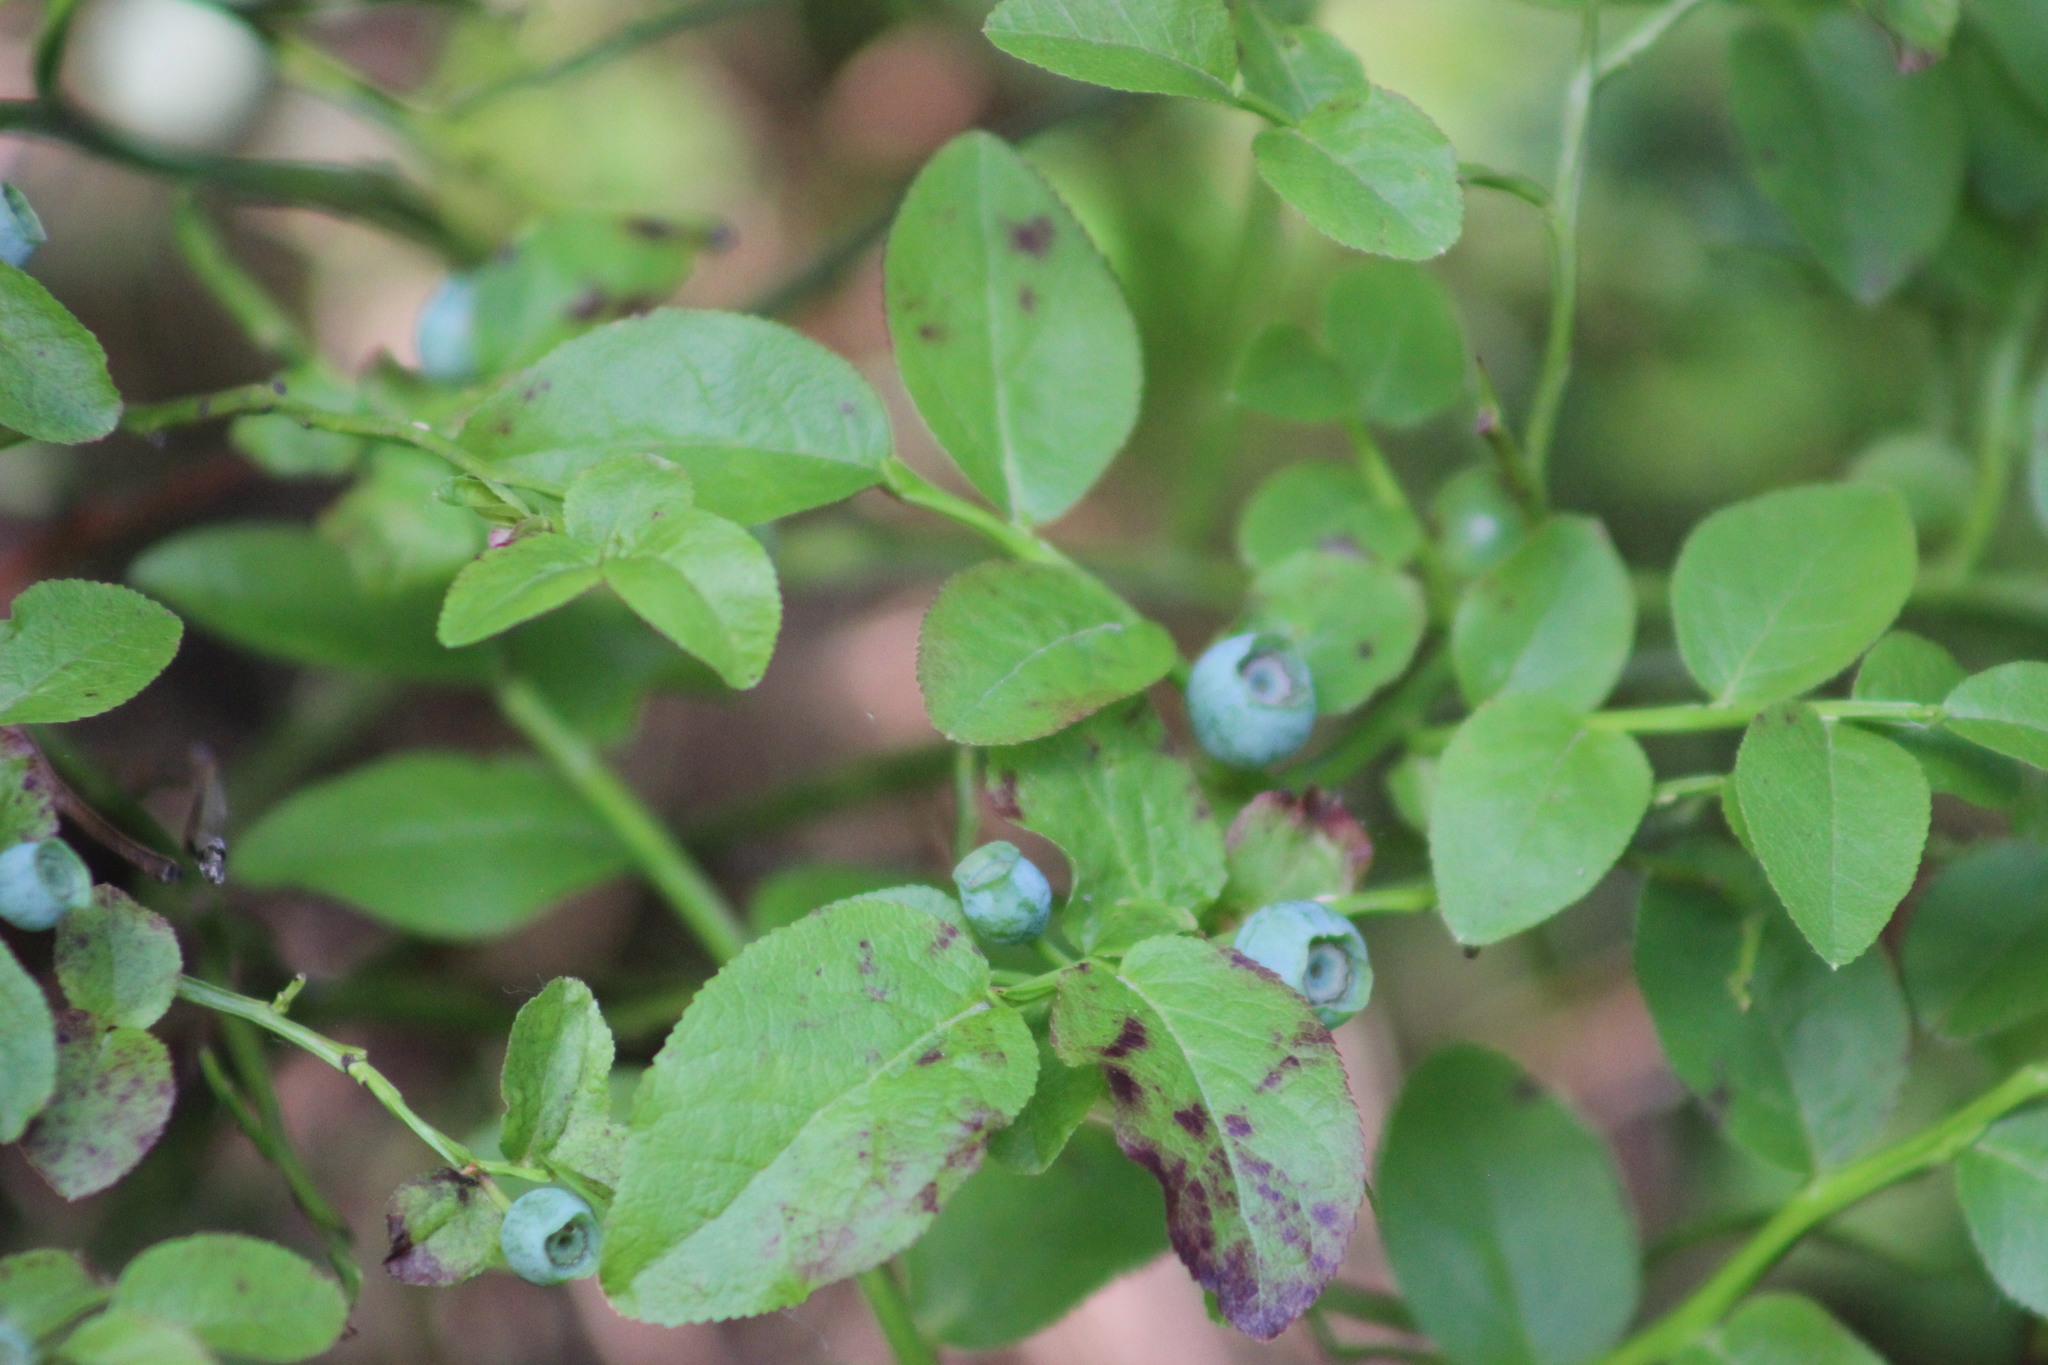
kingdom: Plantae
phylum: Tracheophyta
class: Magnoliopsida
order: Ericales
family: Ericaceae
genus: Vaccinium
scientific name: Vaccinium myrtillus
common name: Bilberry
